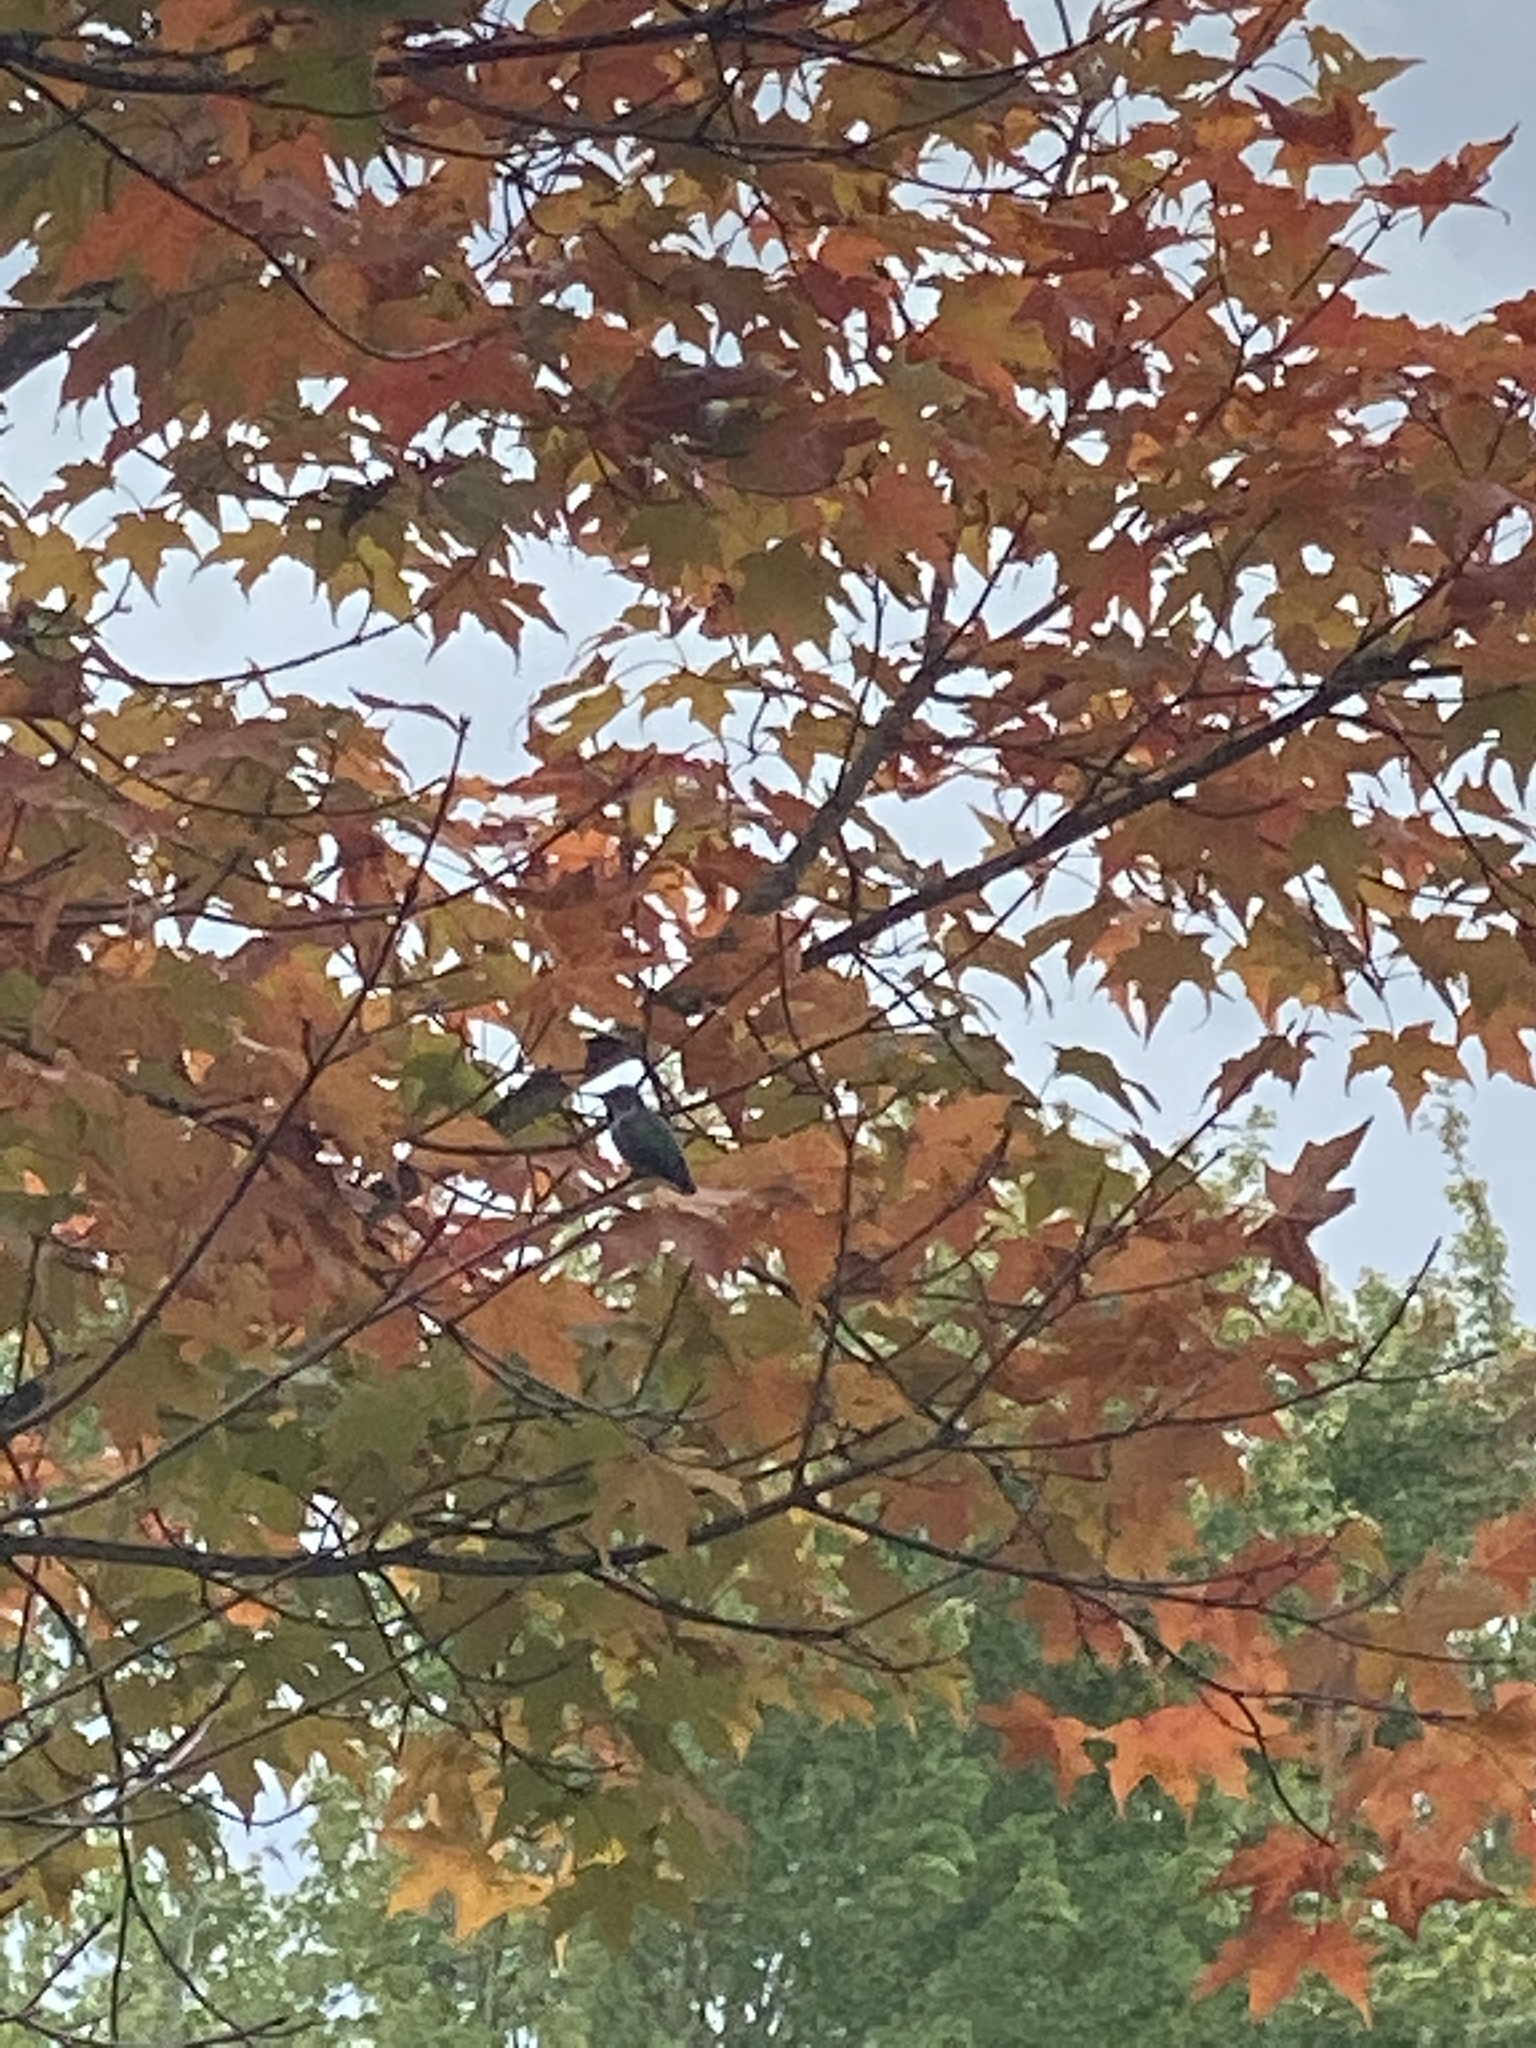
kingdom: Animalia
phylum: Chordata
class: Aves
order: Apodiformes
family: Trochilidae
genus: Calypte
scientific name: Calypte anna
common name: Anna's hummingbird
